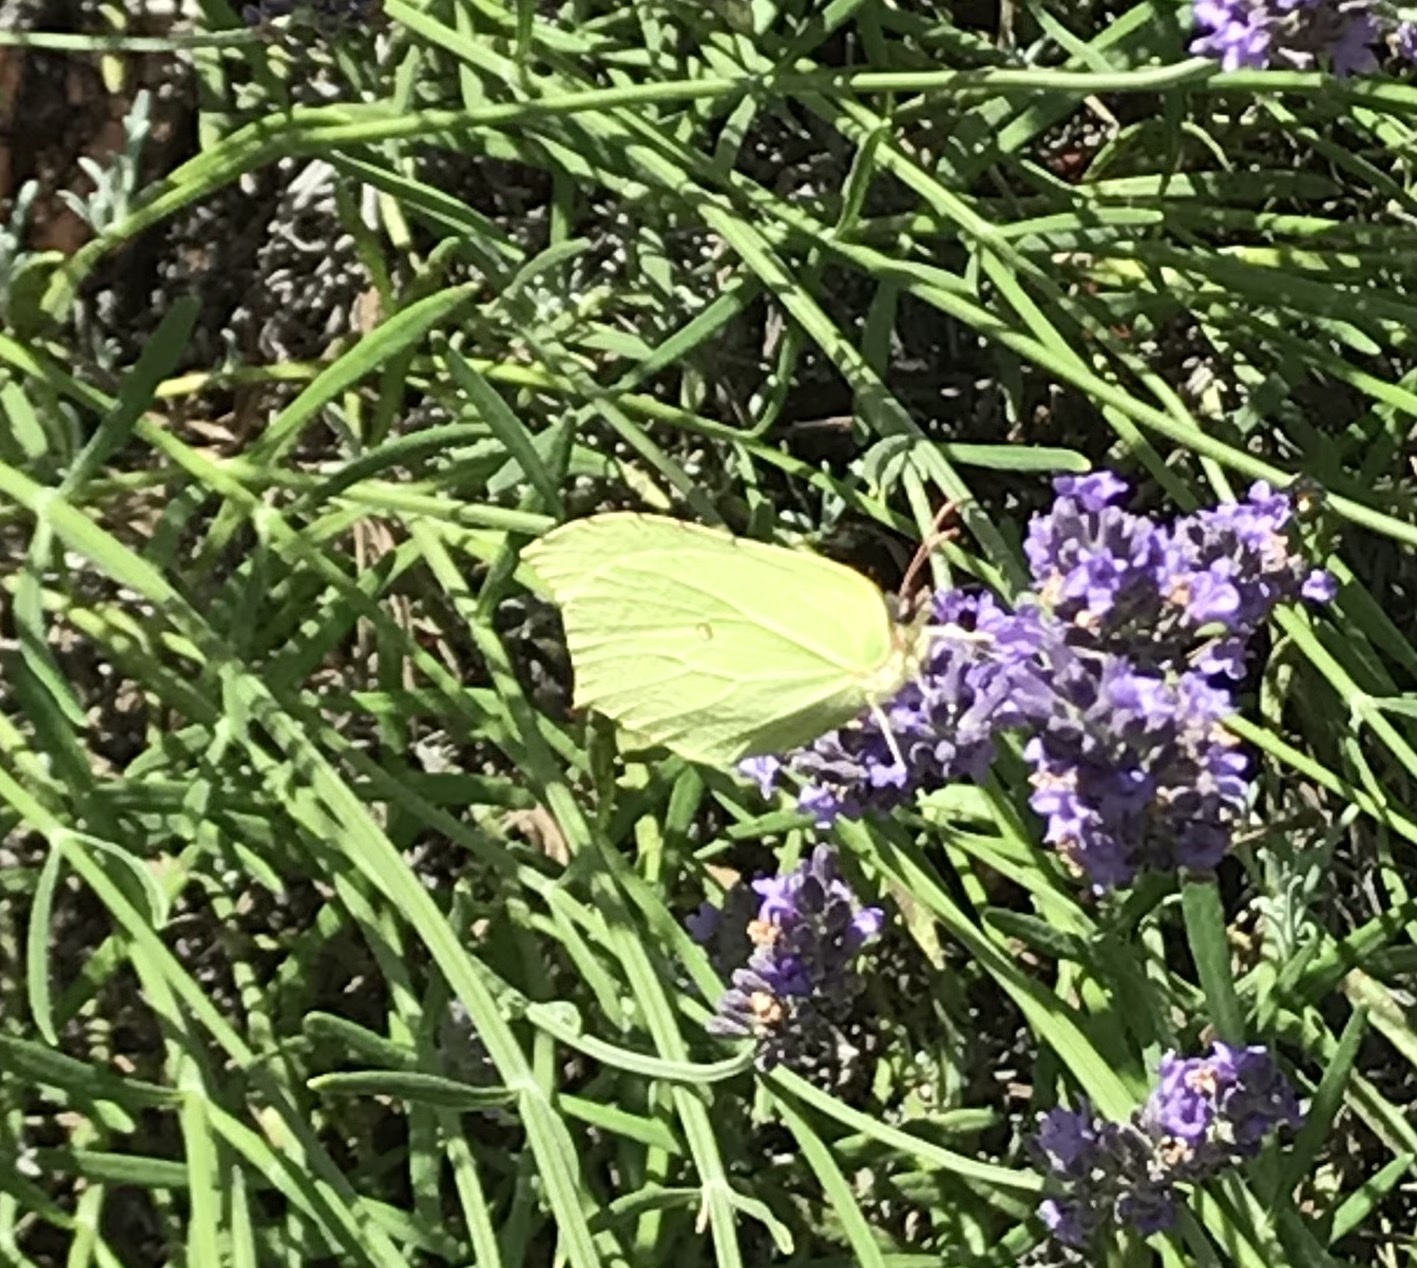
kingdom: Animalia
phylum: Arthropoda
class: Insecta
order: Lepidoptera
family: Pieridae
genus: Gonepteryx
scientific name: Gonepteryx rhamni
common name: Brimstone
